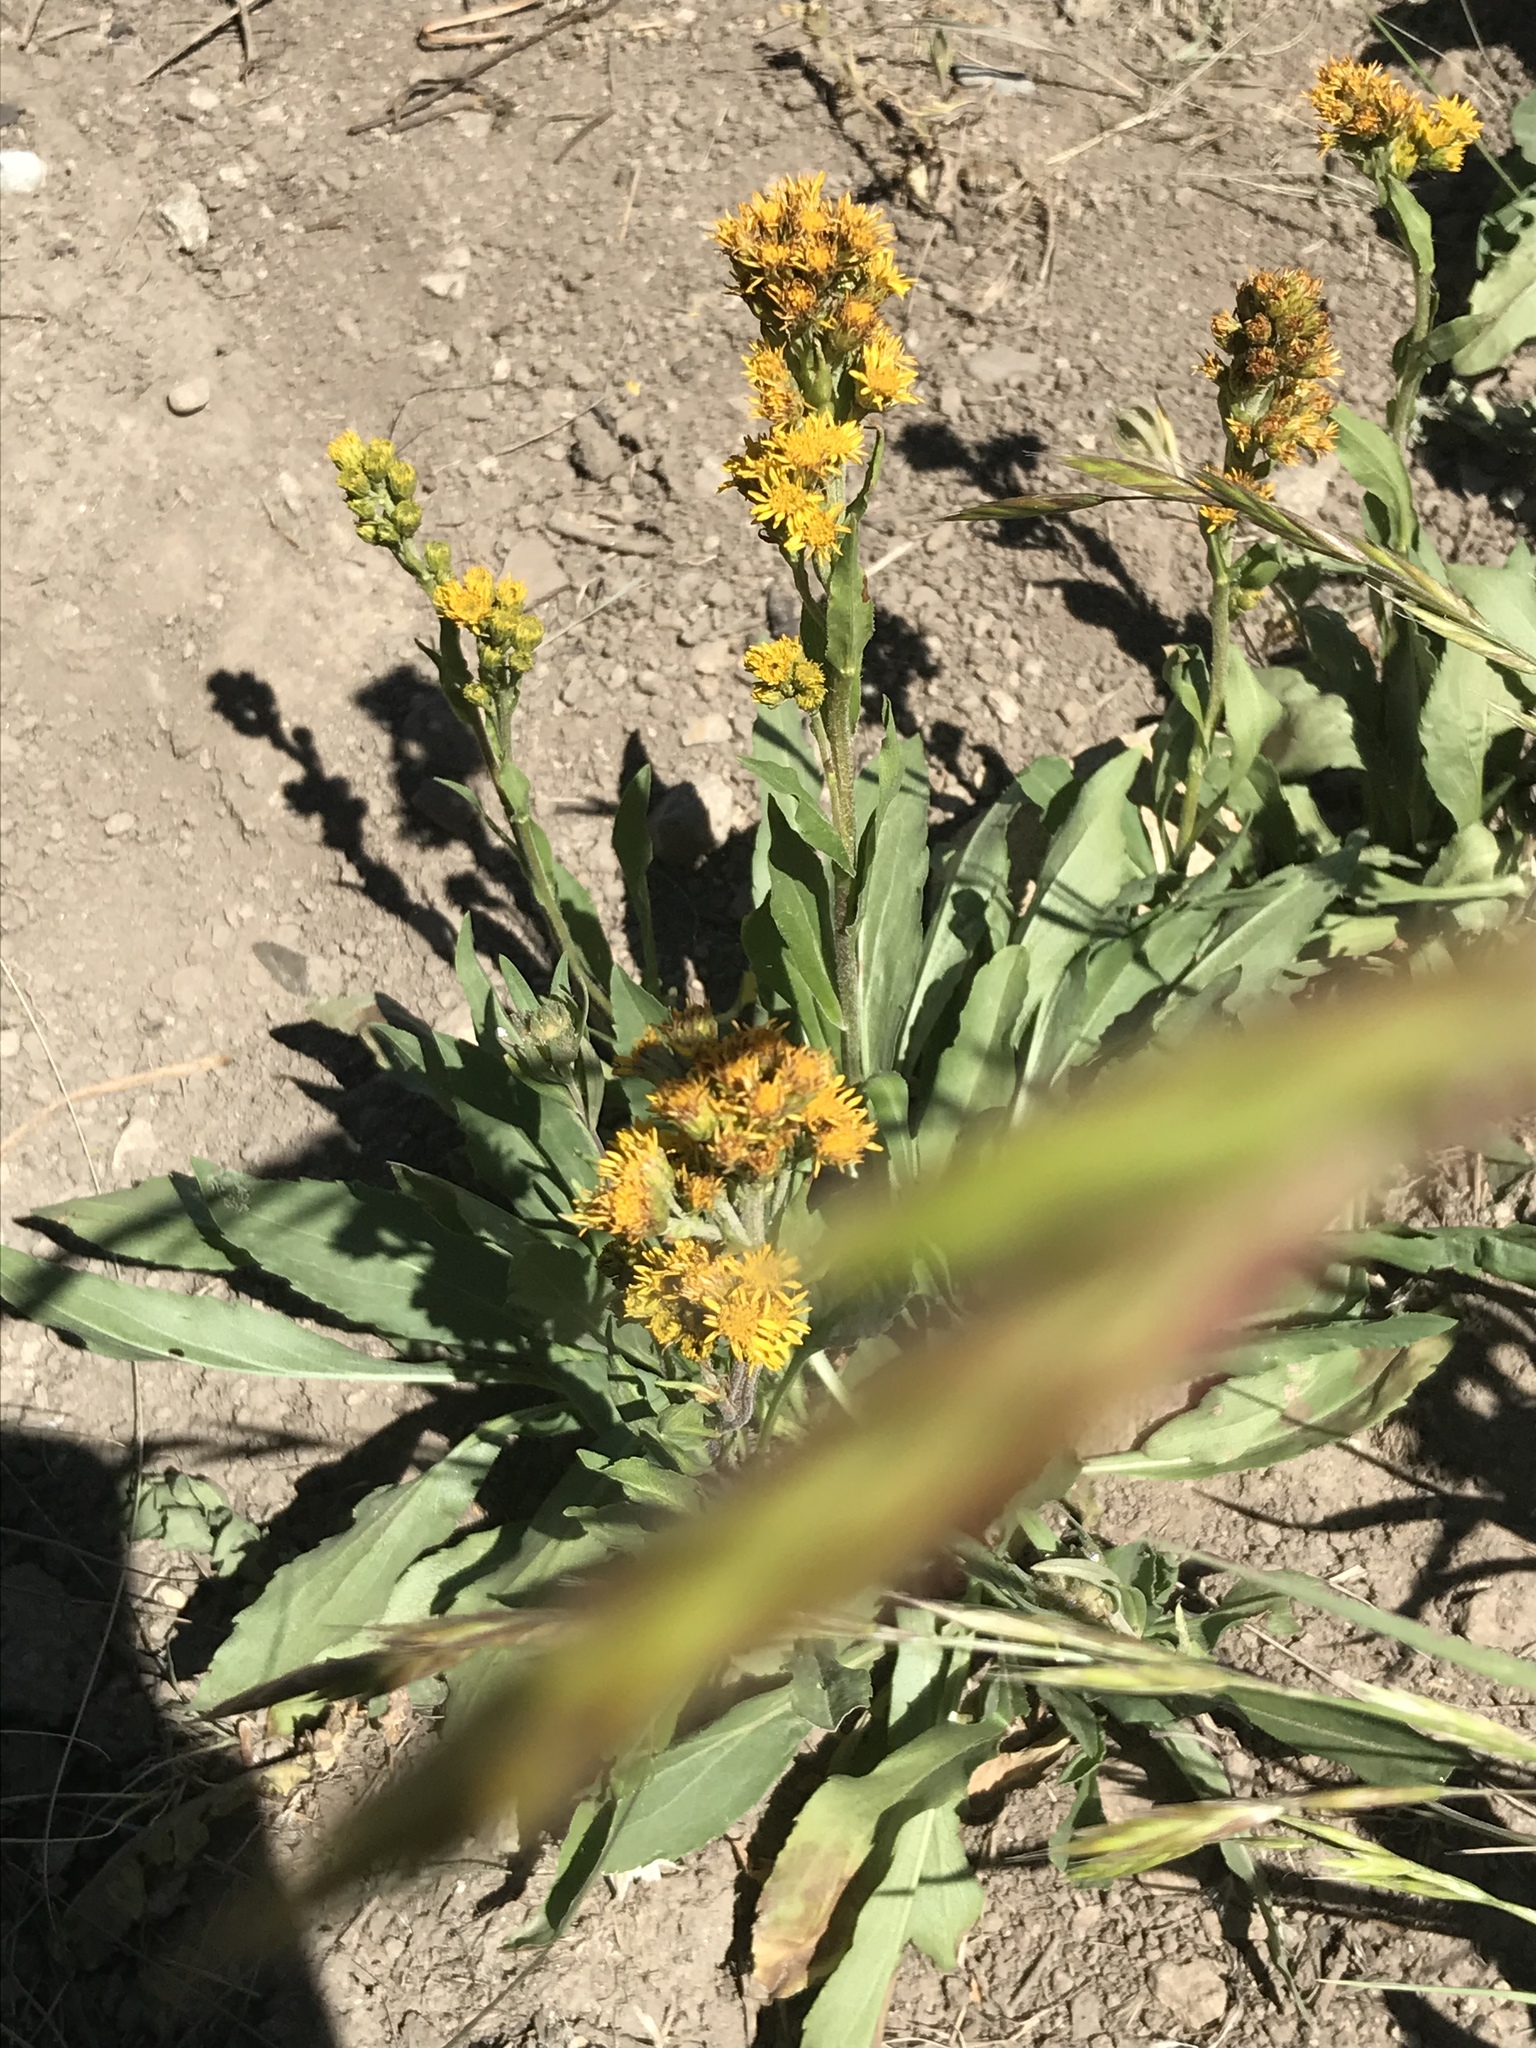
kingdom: Plantae
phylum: Tracheophyta
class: Magnoliopsida
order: Asterales
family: Asteraceae
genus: Solidago
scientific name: Solidago multiradiata
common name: Northern goldenrod
